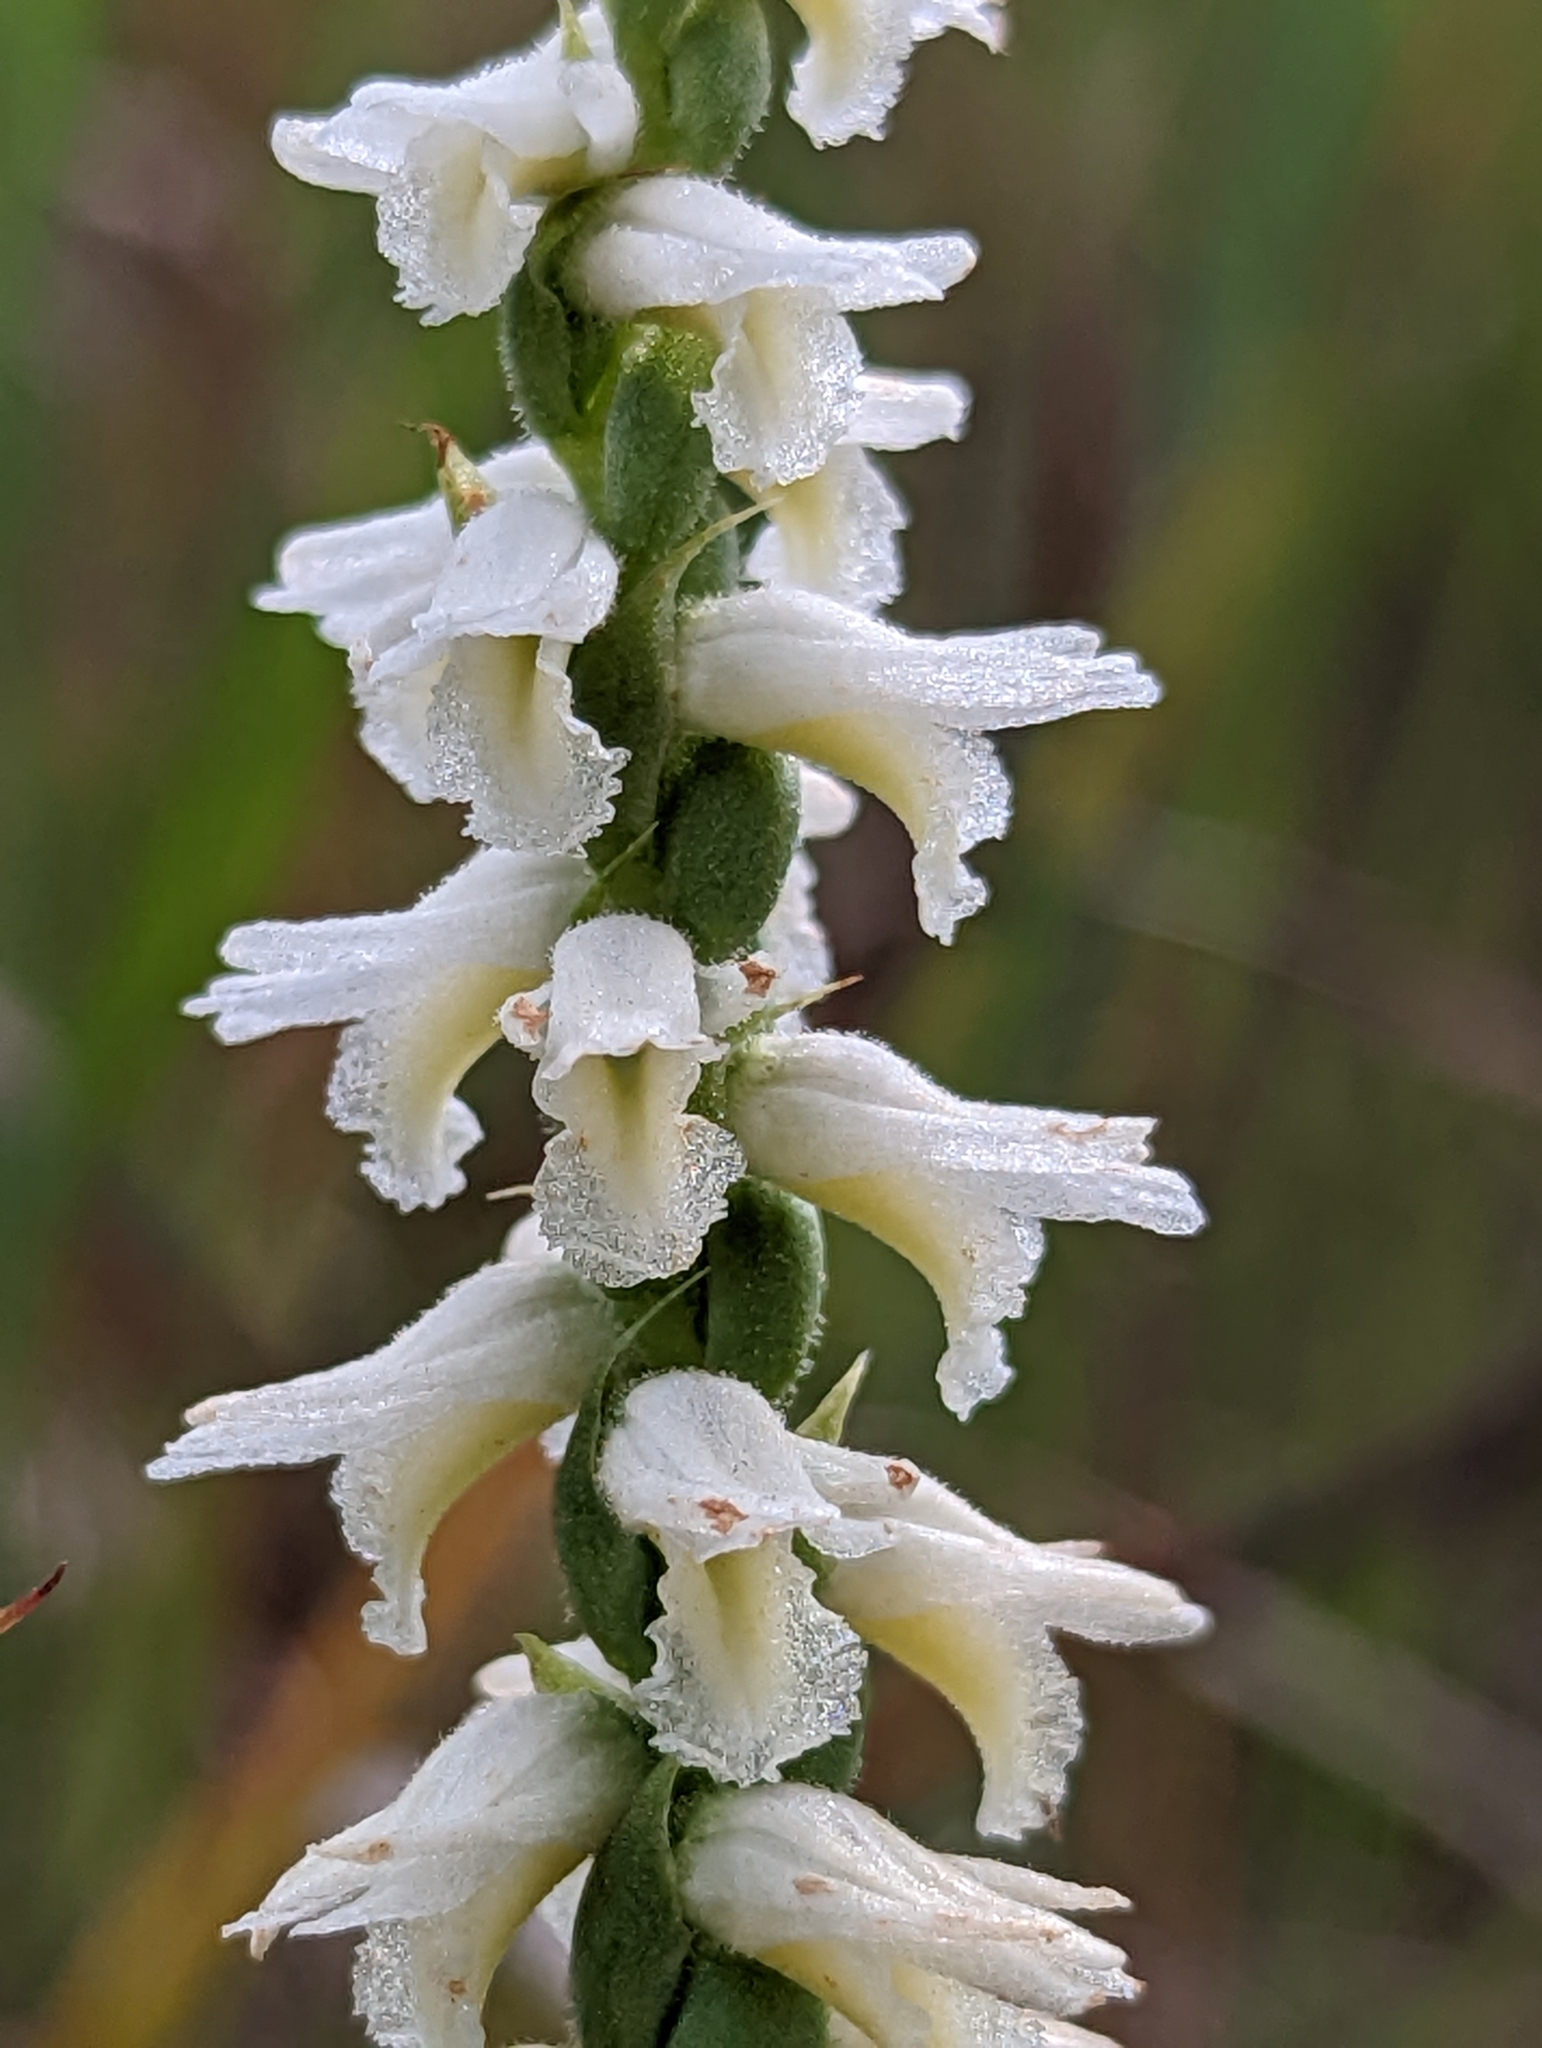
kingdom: Plantae
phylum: Tracheophyta
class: Liliopsida
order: Asparagales
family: Orchidaceae
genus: Spiranthes
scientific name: Spiranthes magnicamporum
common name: Great plains ladies'-tresses
